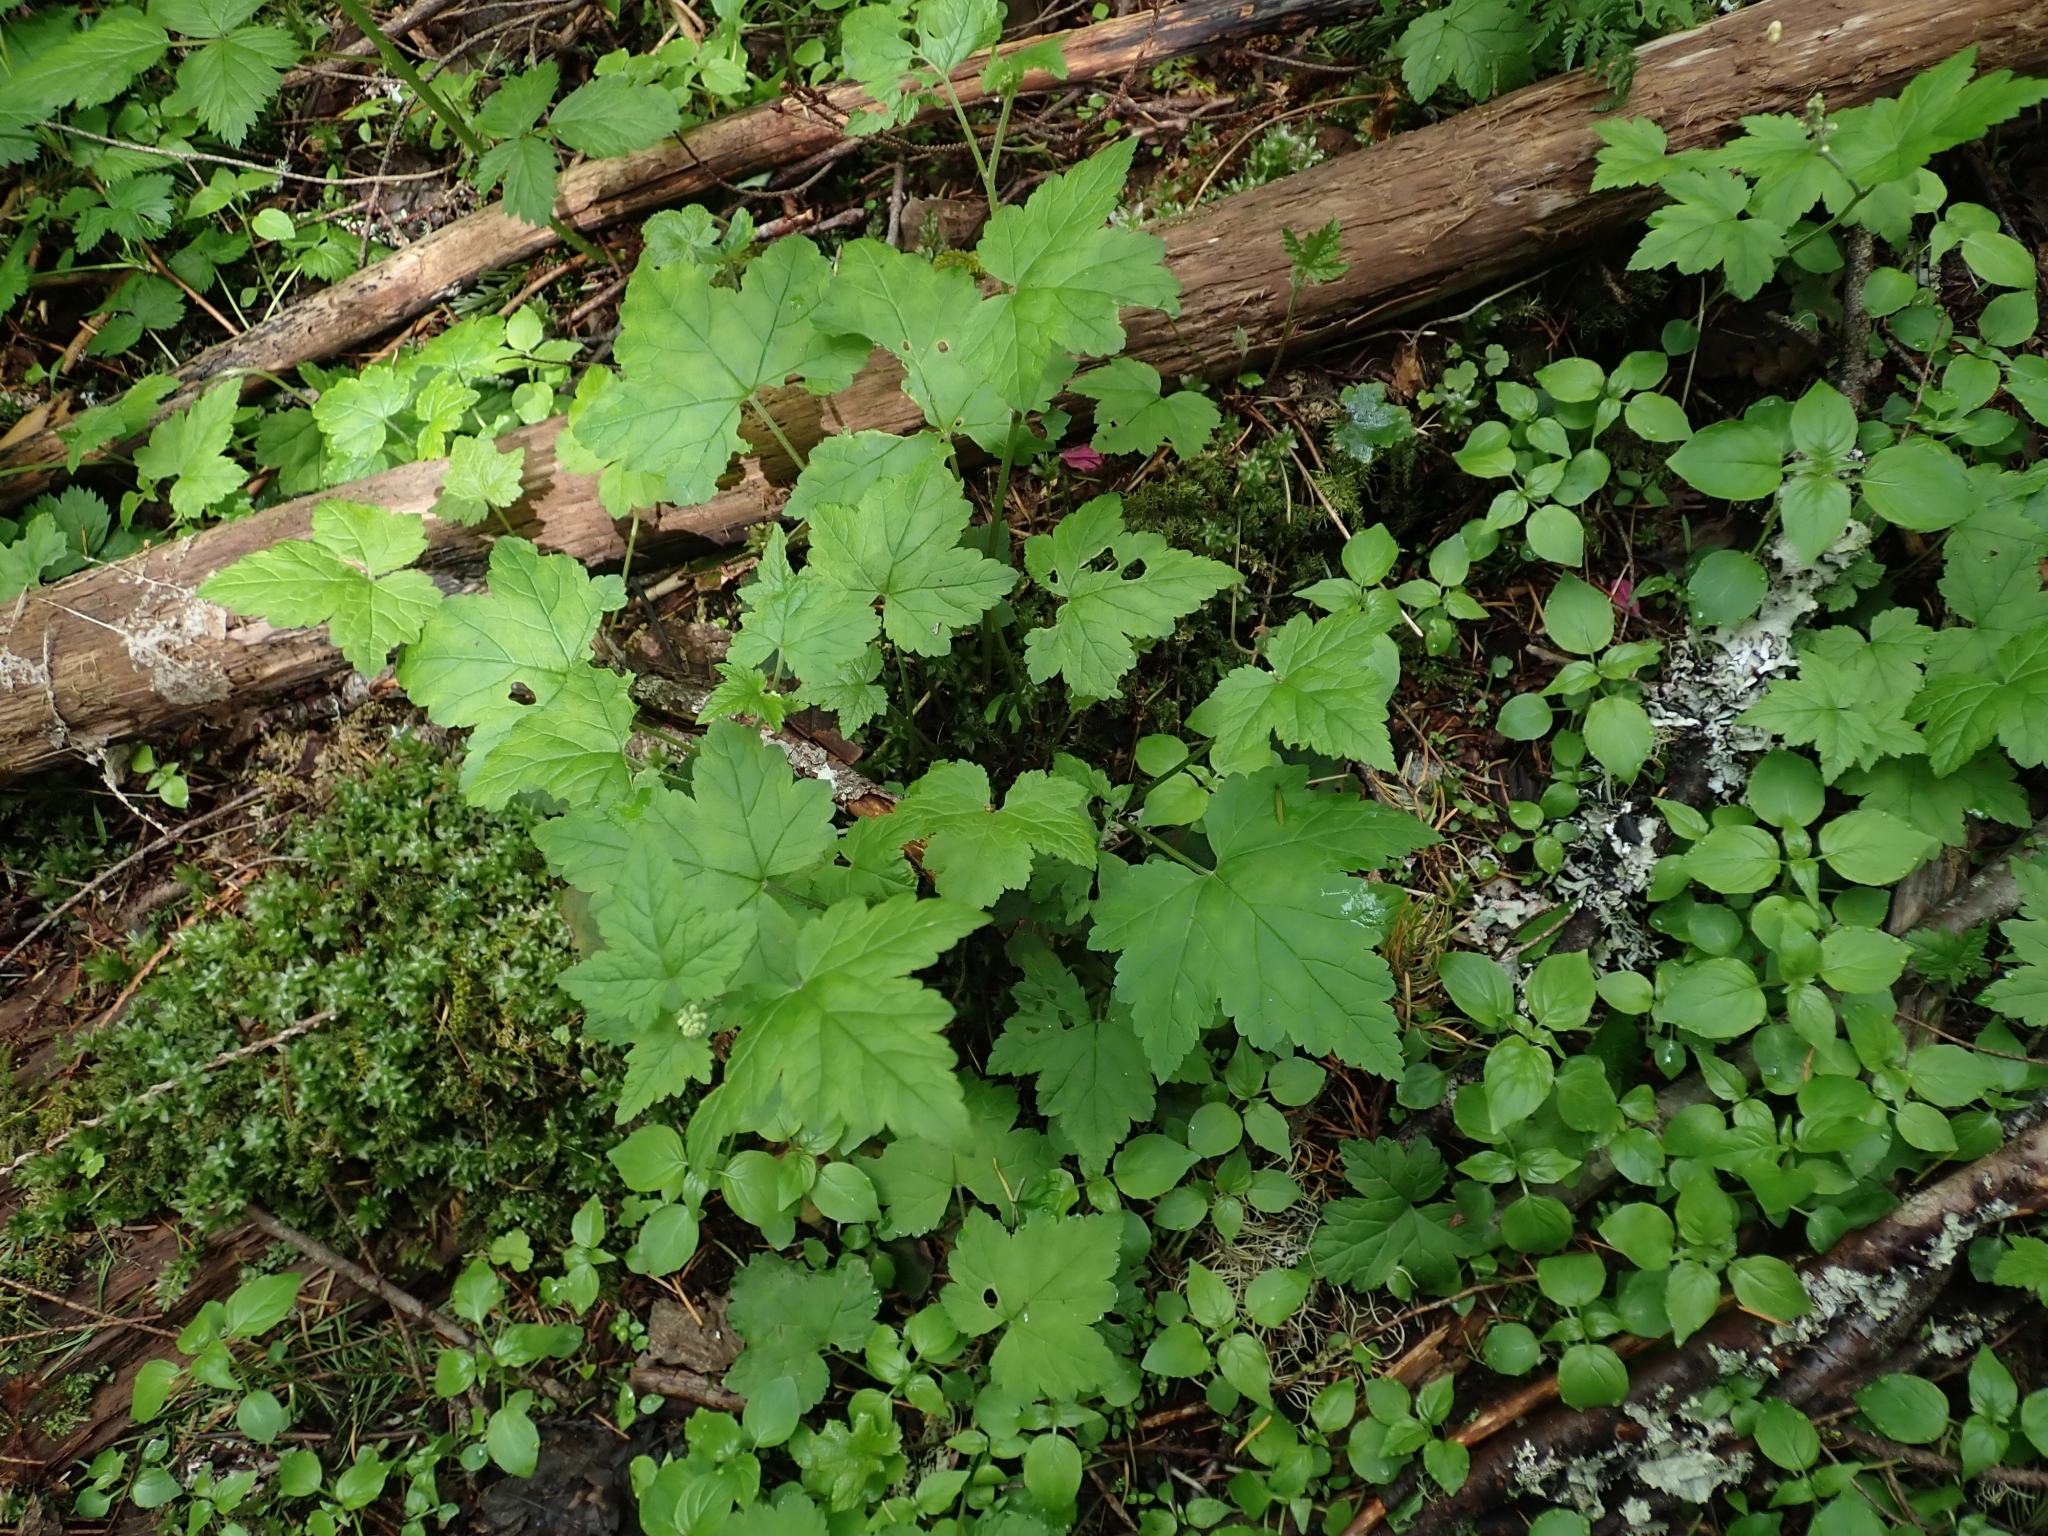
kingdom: Plantae
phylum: Tracheophyta
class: Magnoliopsida
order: Saxifragales
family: Saxifragaceae
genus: Tiarella
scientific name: Tiarella trifoliata
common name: Sugar-scoop
